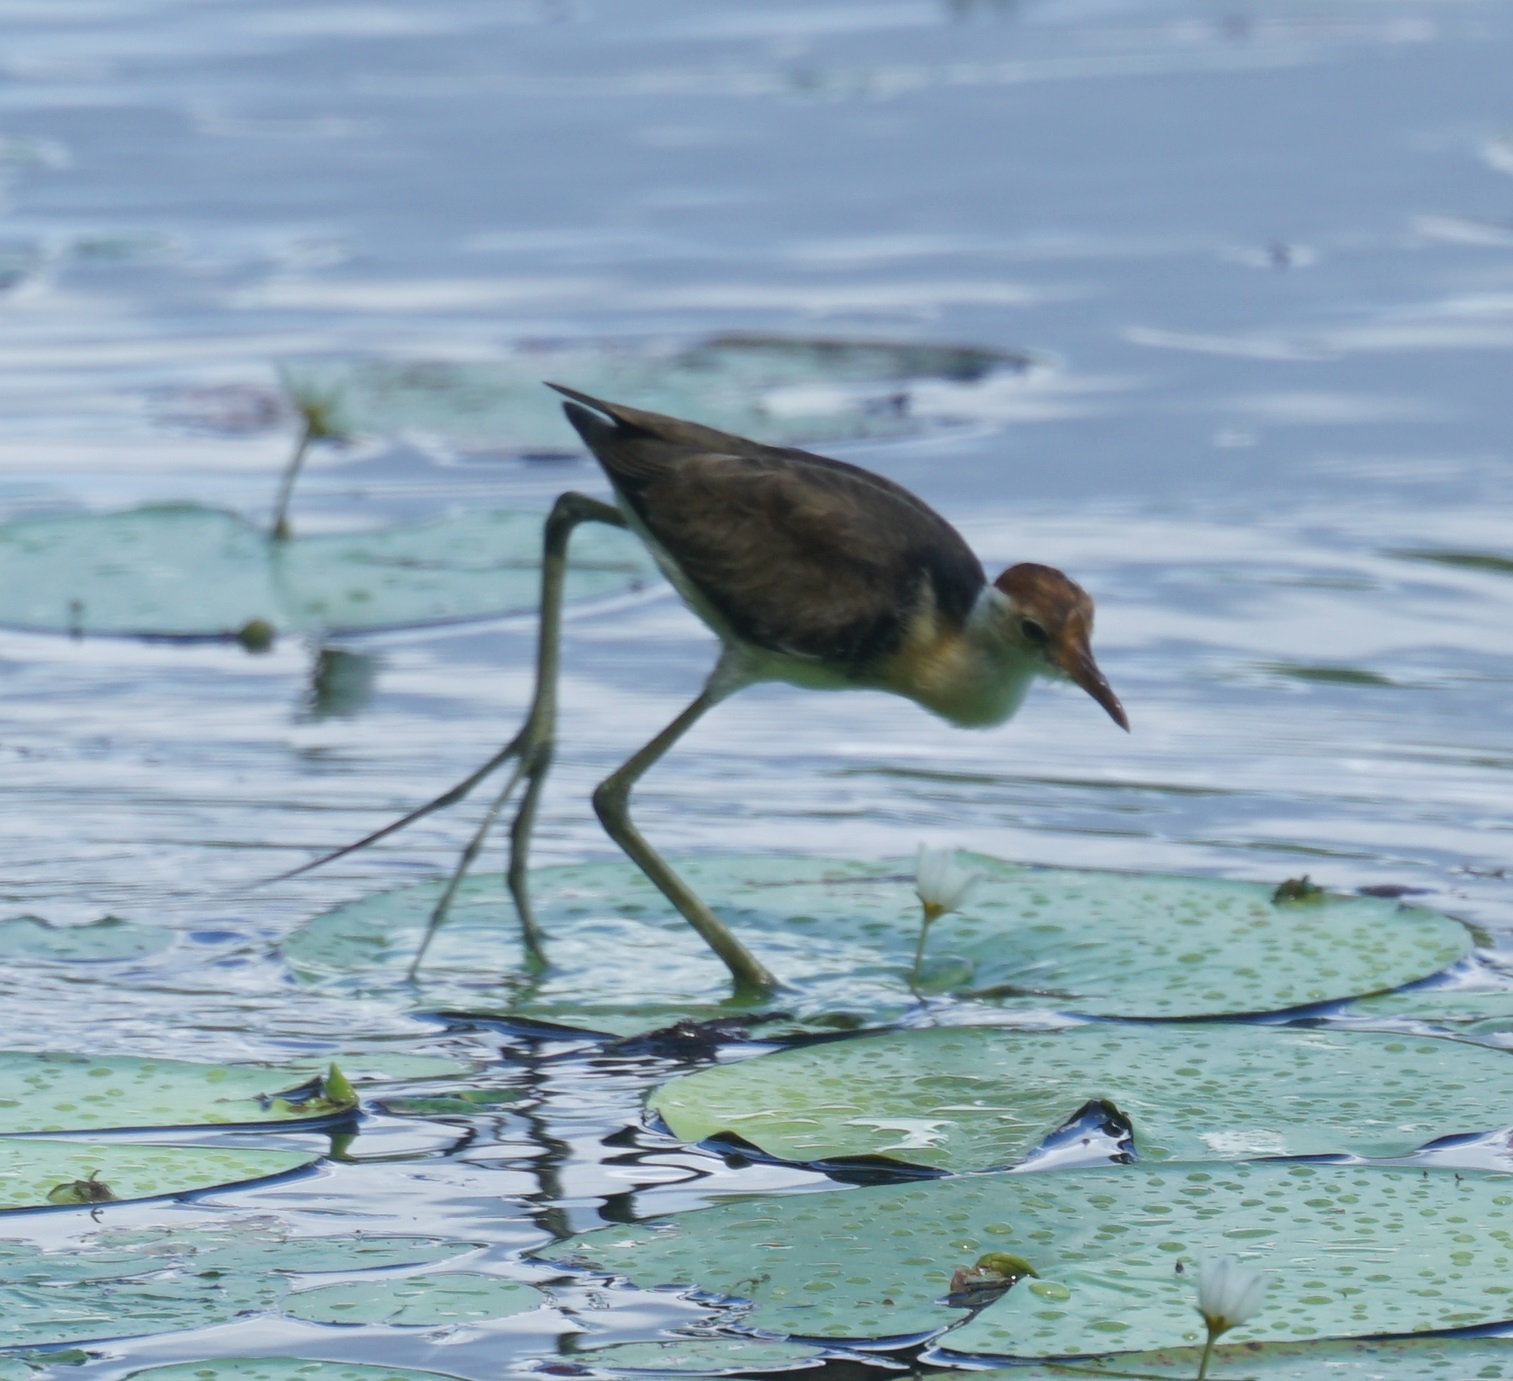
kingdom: Animalia
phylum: Chordata
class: Aves
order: Charadriiformes
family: Jacanidae
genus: Irediparra
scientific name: Irediparra gallinacea
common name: Comb-crested jacana
